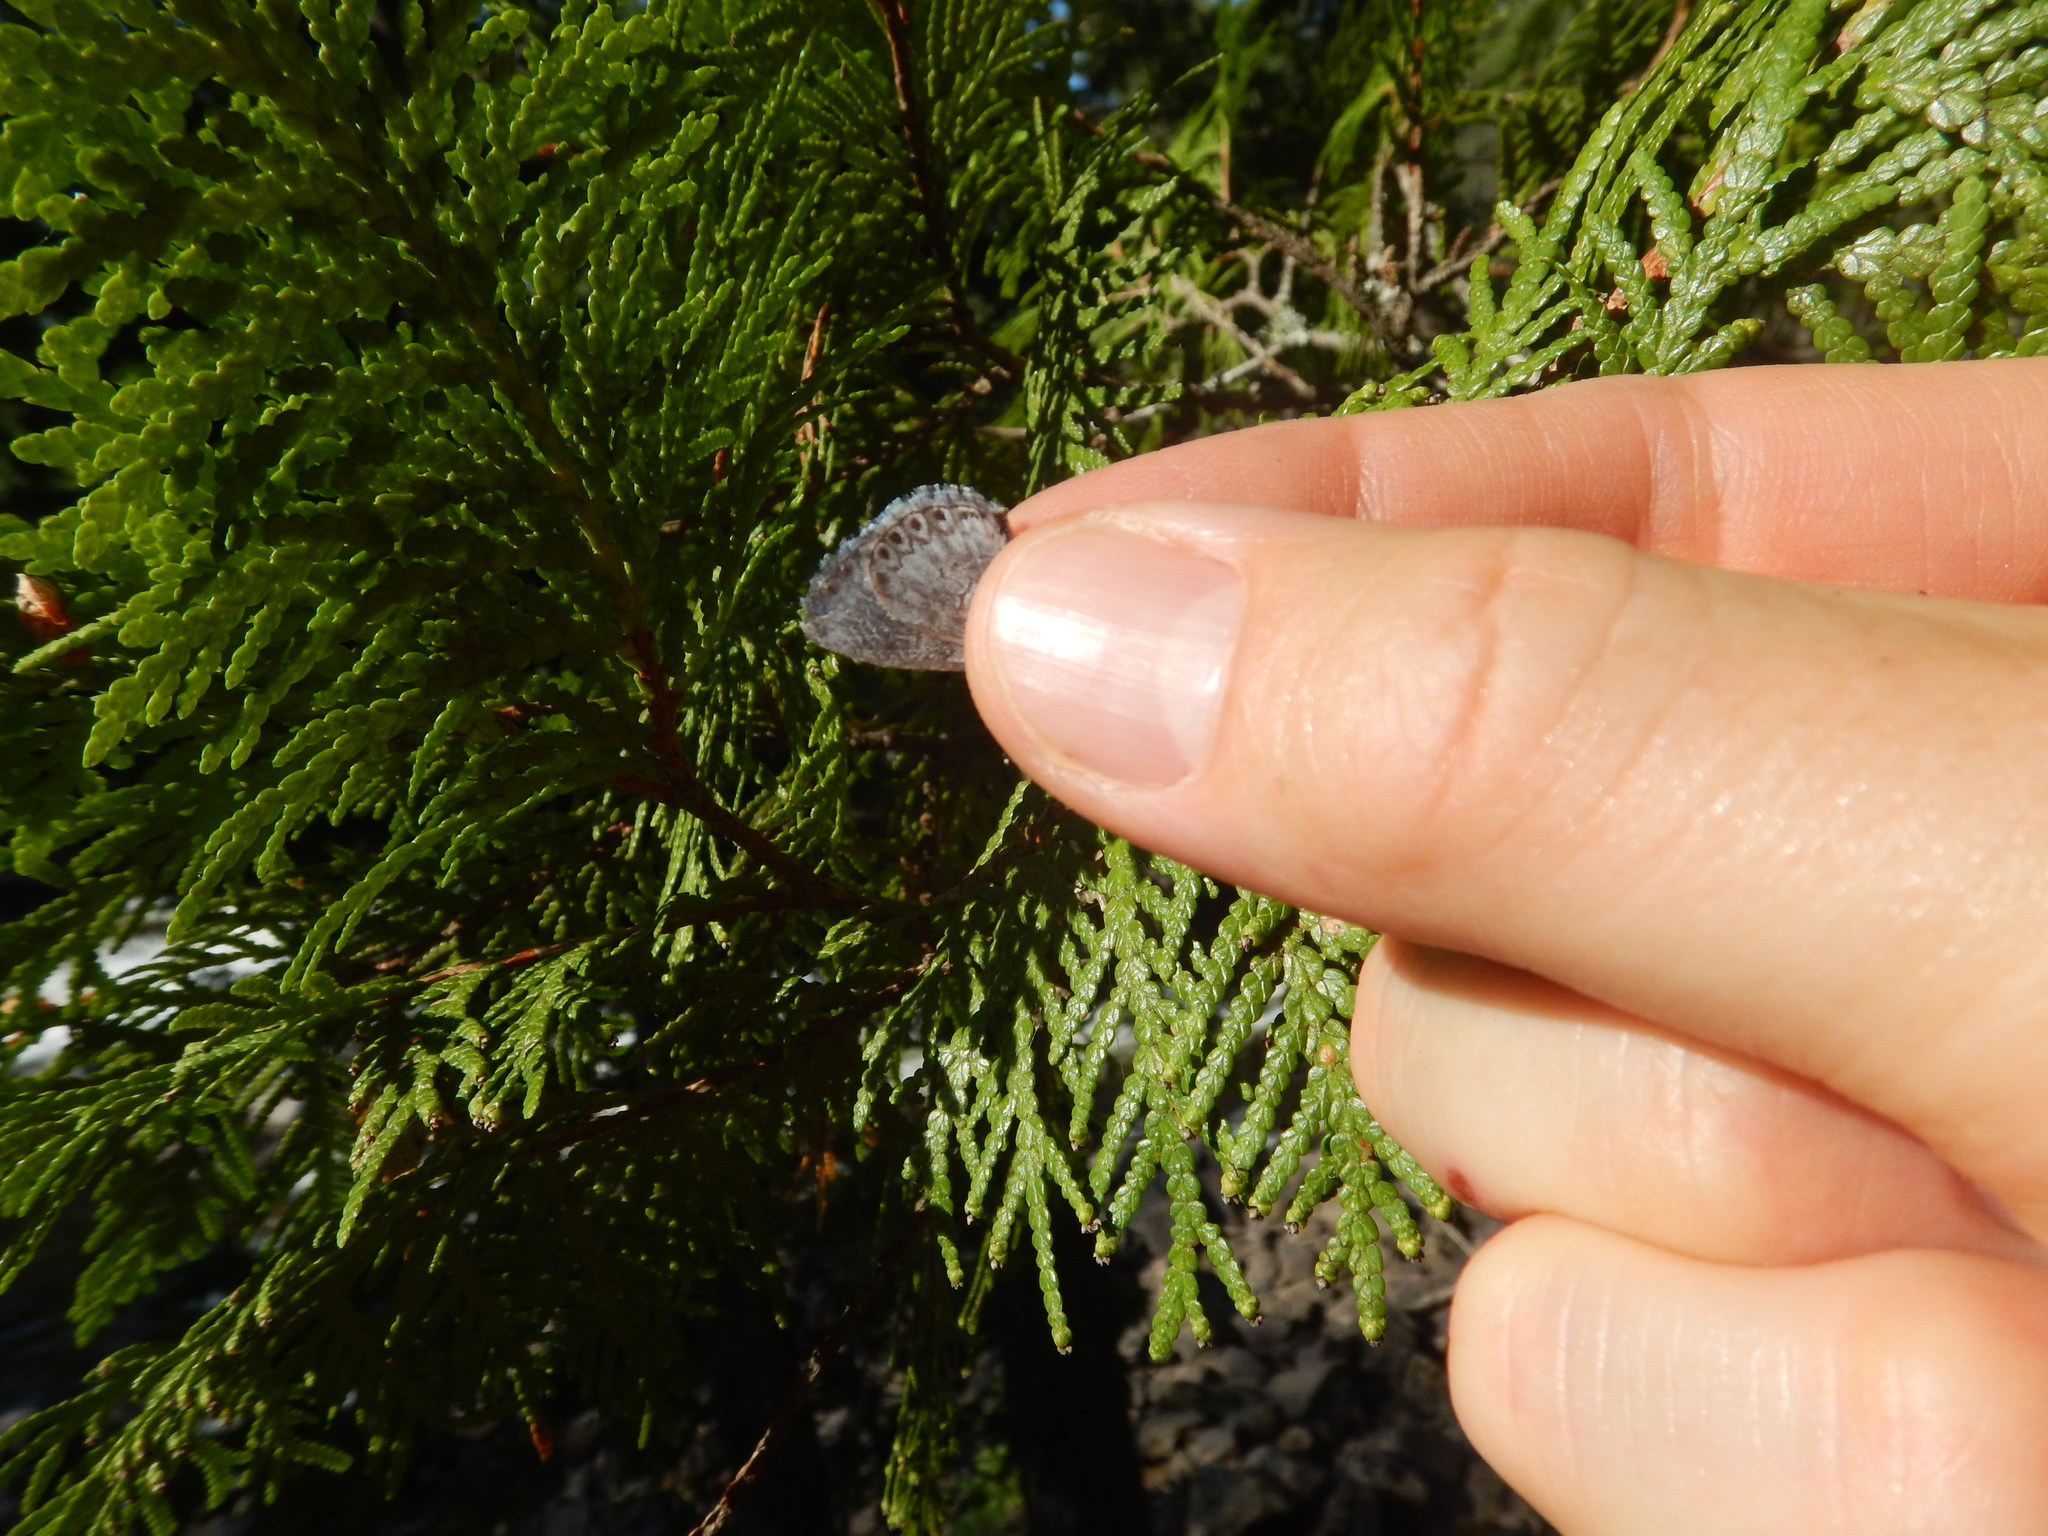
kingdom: Animalia
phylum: Arthropoda
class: Insecta
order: Lepidoptera
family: Lycaenidae
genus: Celastrina
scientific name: Celastrina lucia
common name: Lucia azure
